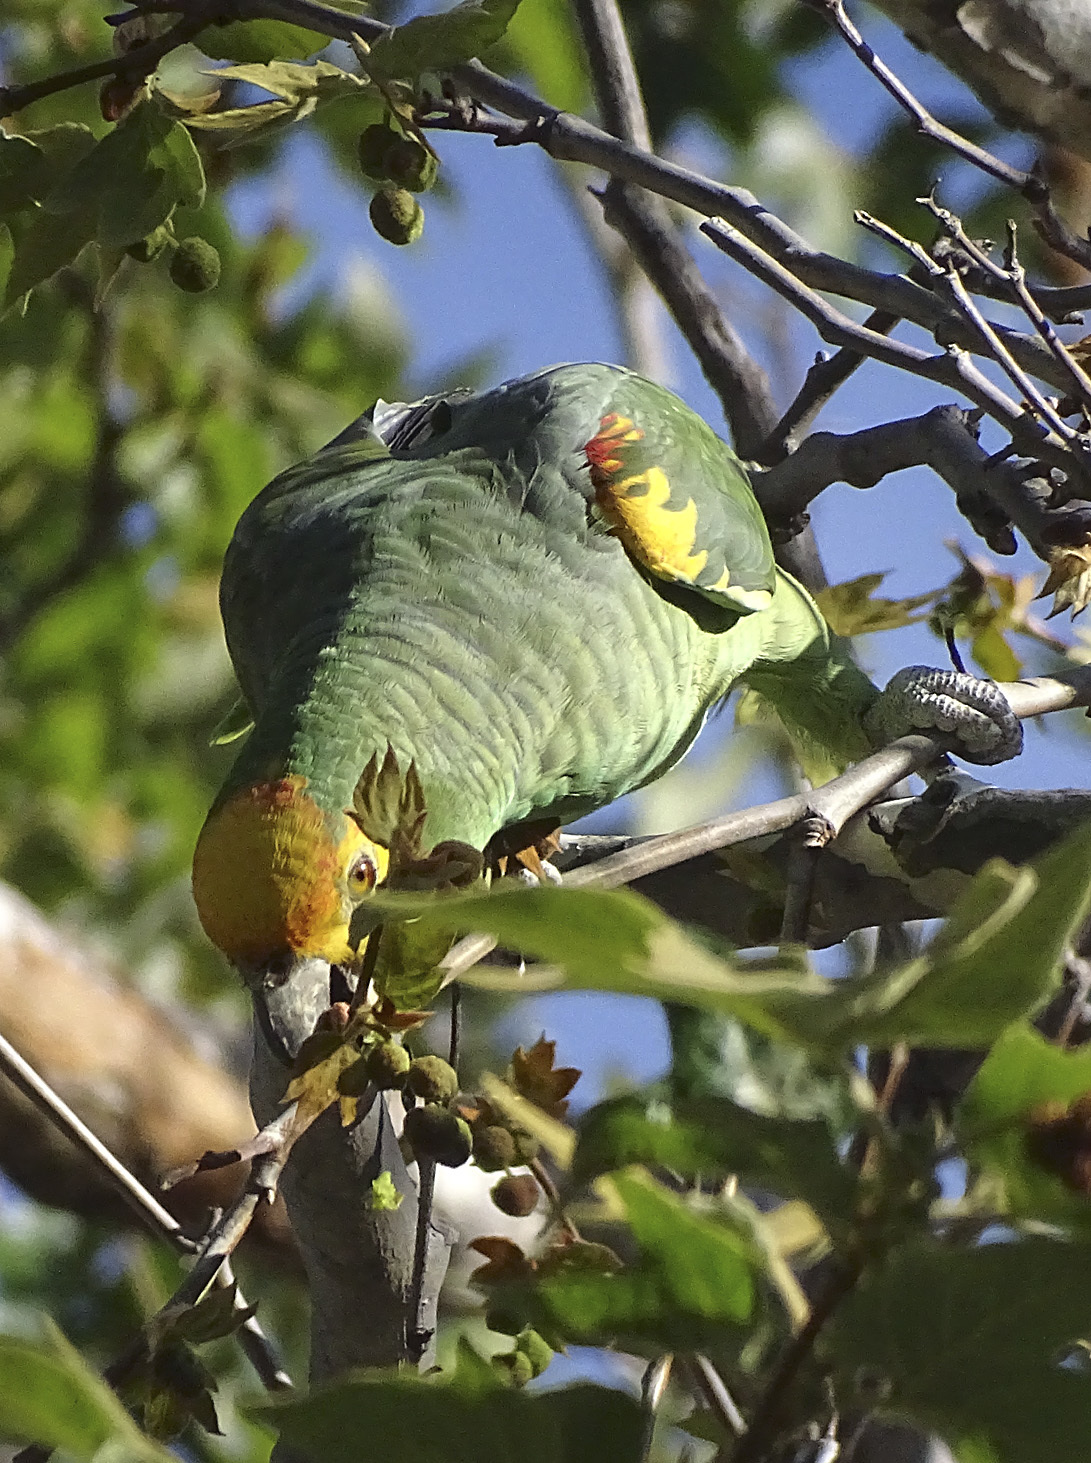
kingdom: Animalia
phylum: Chordata
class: Aves
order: Psittaciformes
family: Psittacidae
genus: Amazona
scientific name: Amazona
